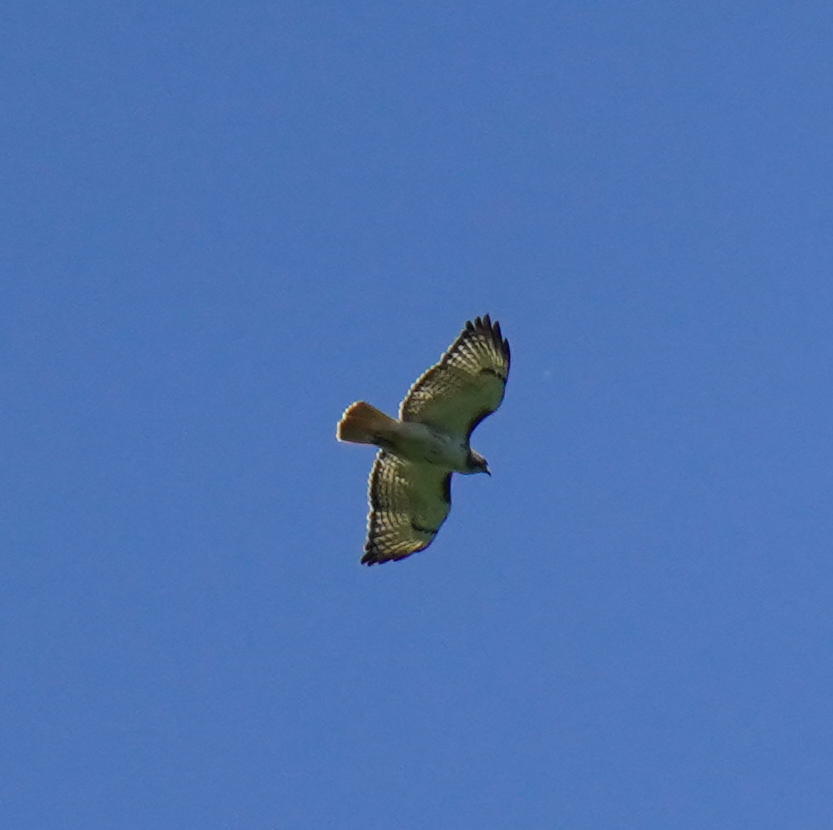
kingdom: Animalia
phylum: Chordata
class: Aves
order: Accipitriformes
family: Accipitridae
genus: Buteo
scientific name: Buteo jamaicensis
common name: Red-tailed hawk
